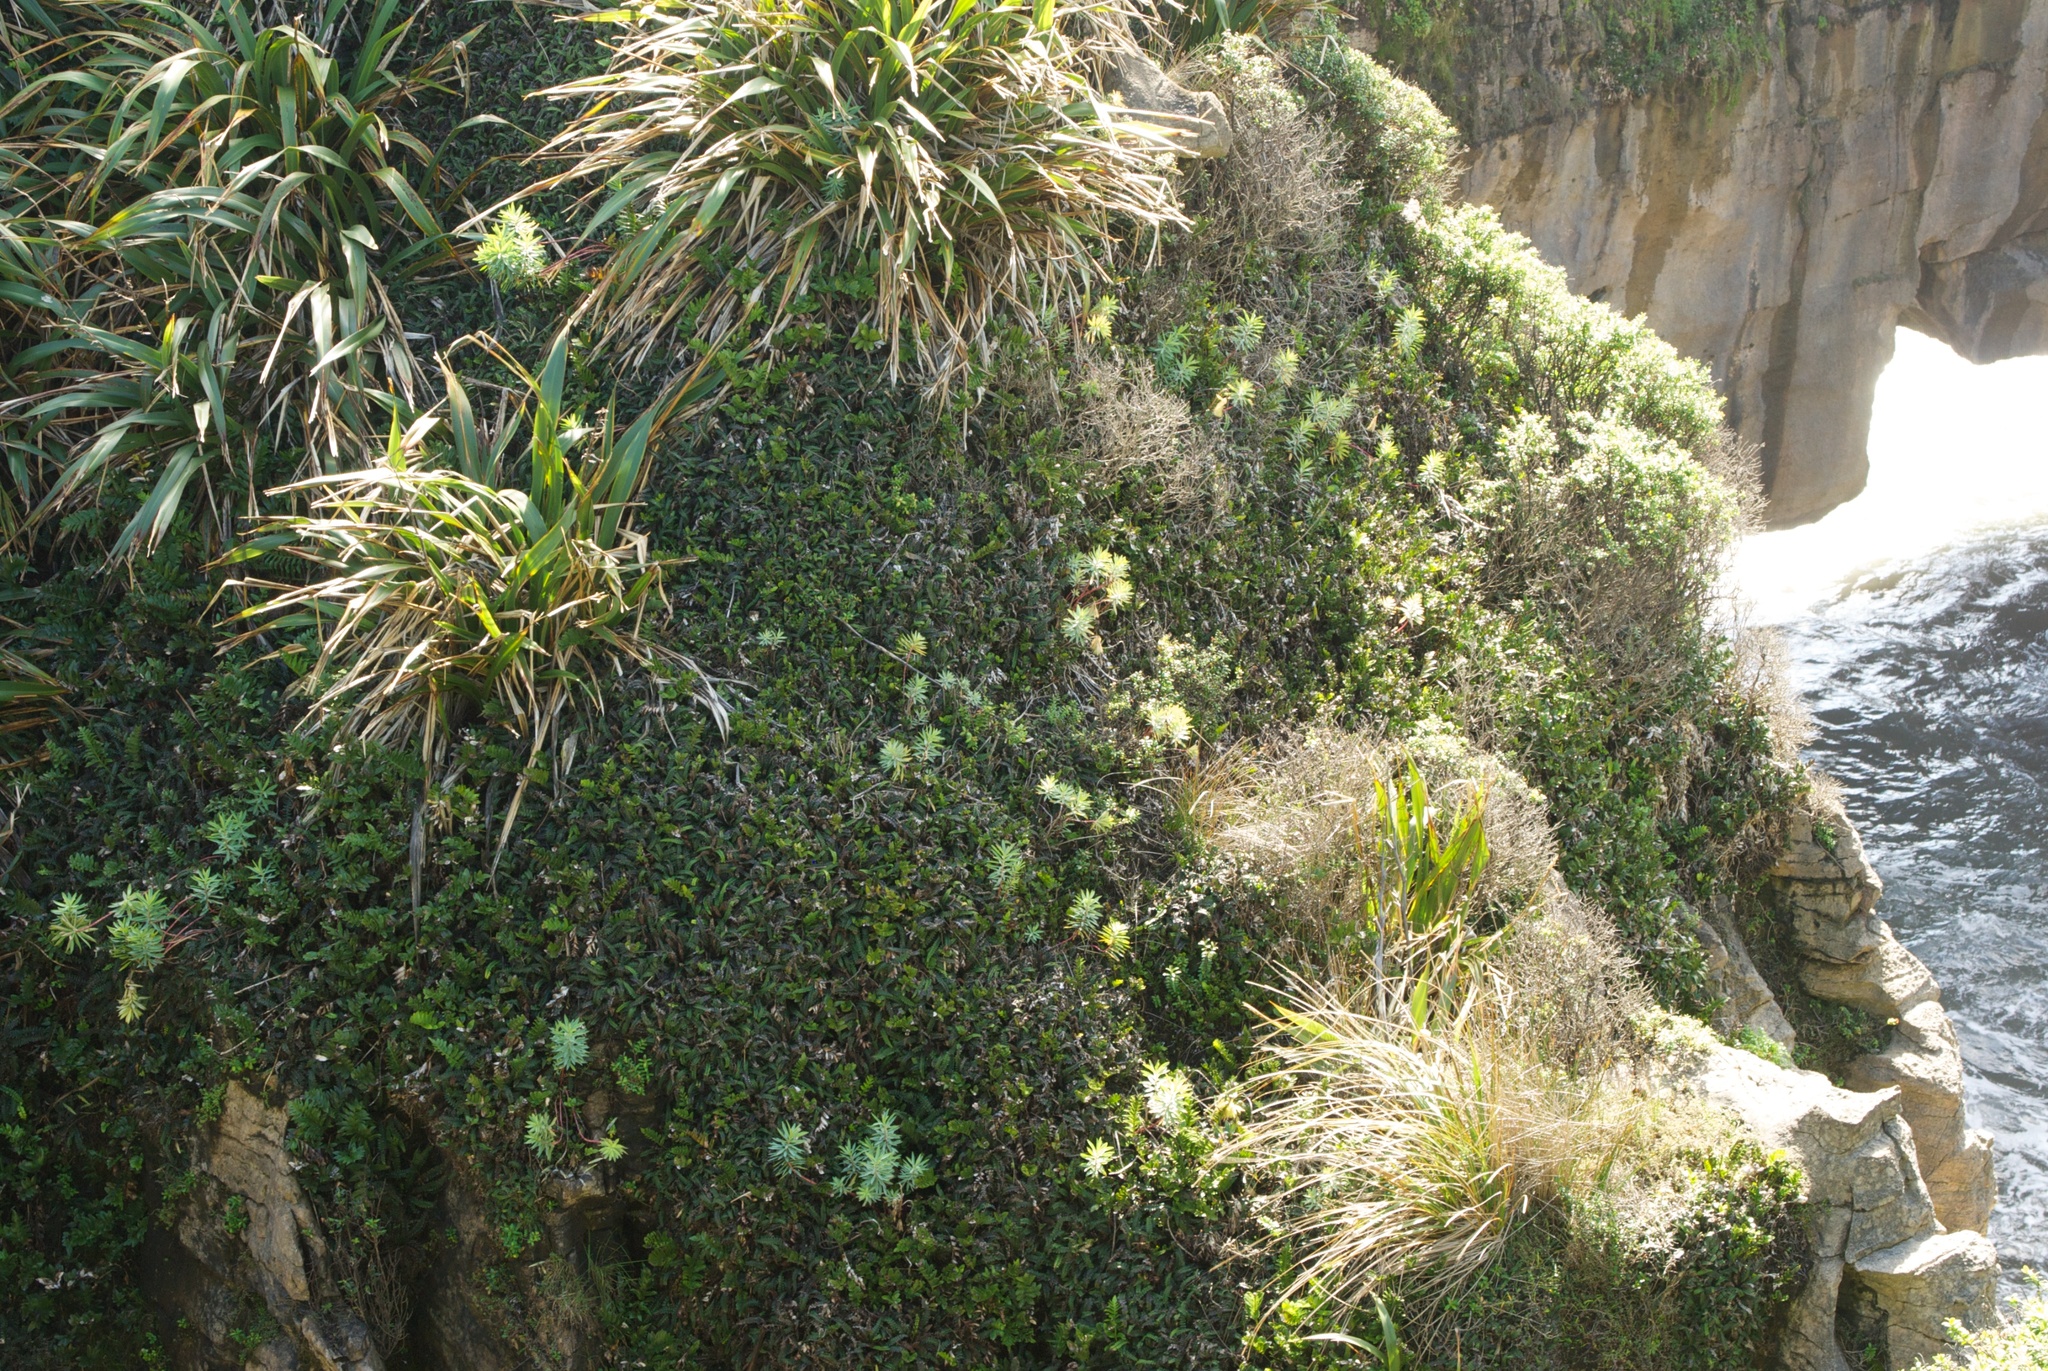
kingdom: Plantae
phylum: Tracheophyta
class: Magnoliopsida
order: Malpighiales
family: Euphorbiaceae
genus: Euphorbia
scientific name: Euphorbia glauca
